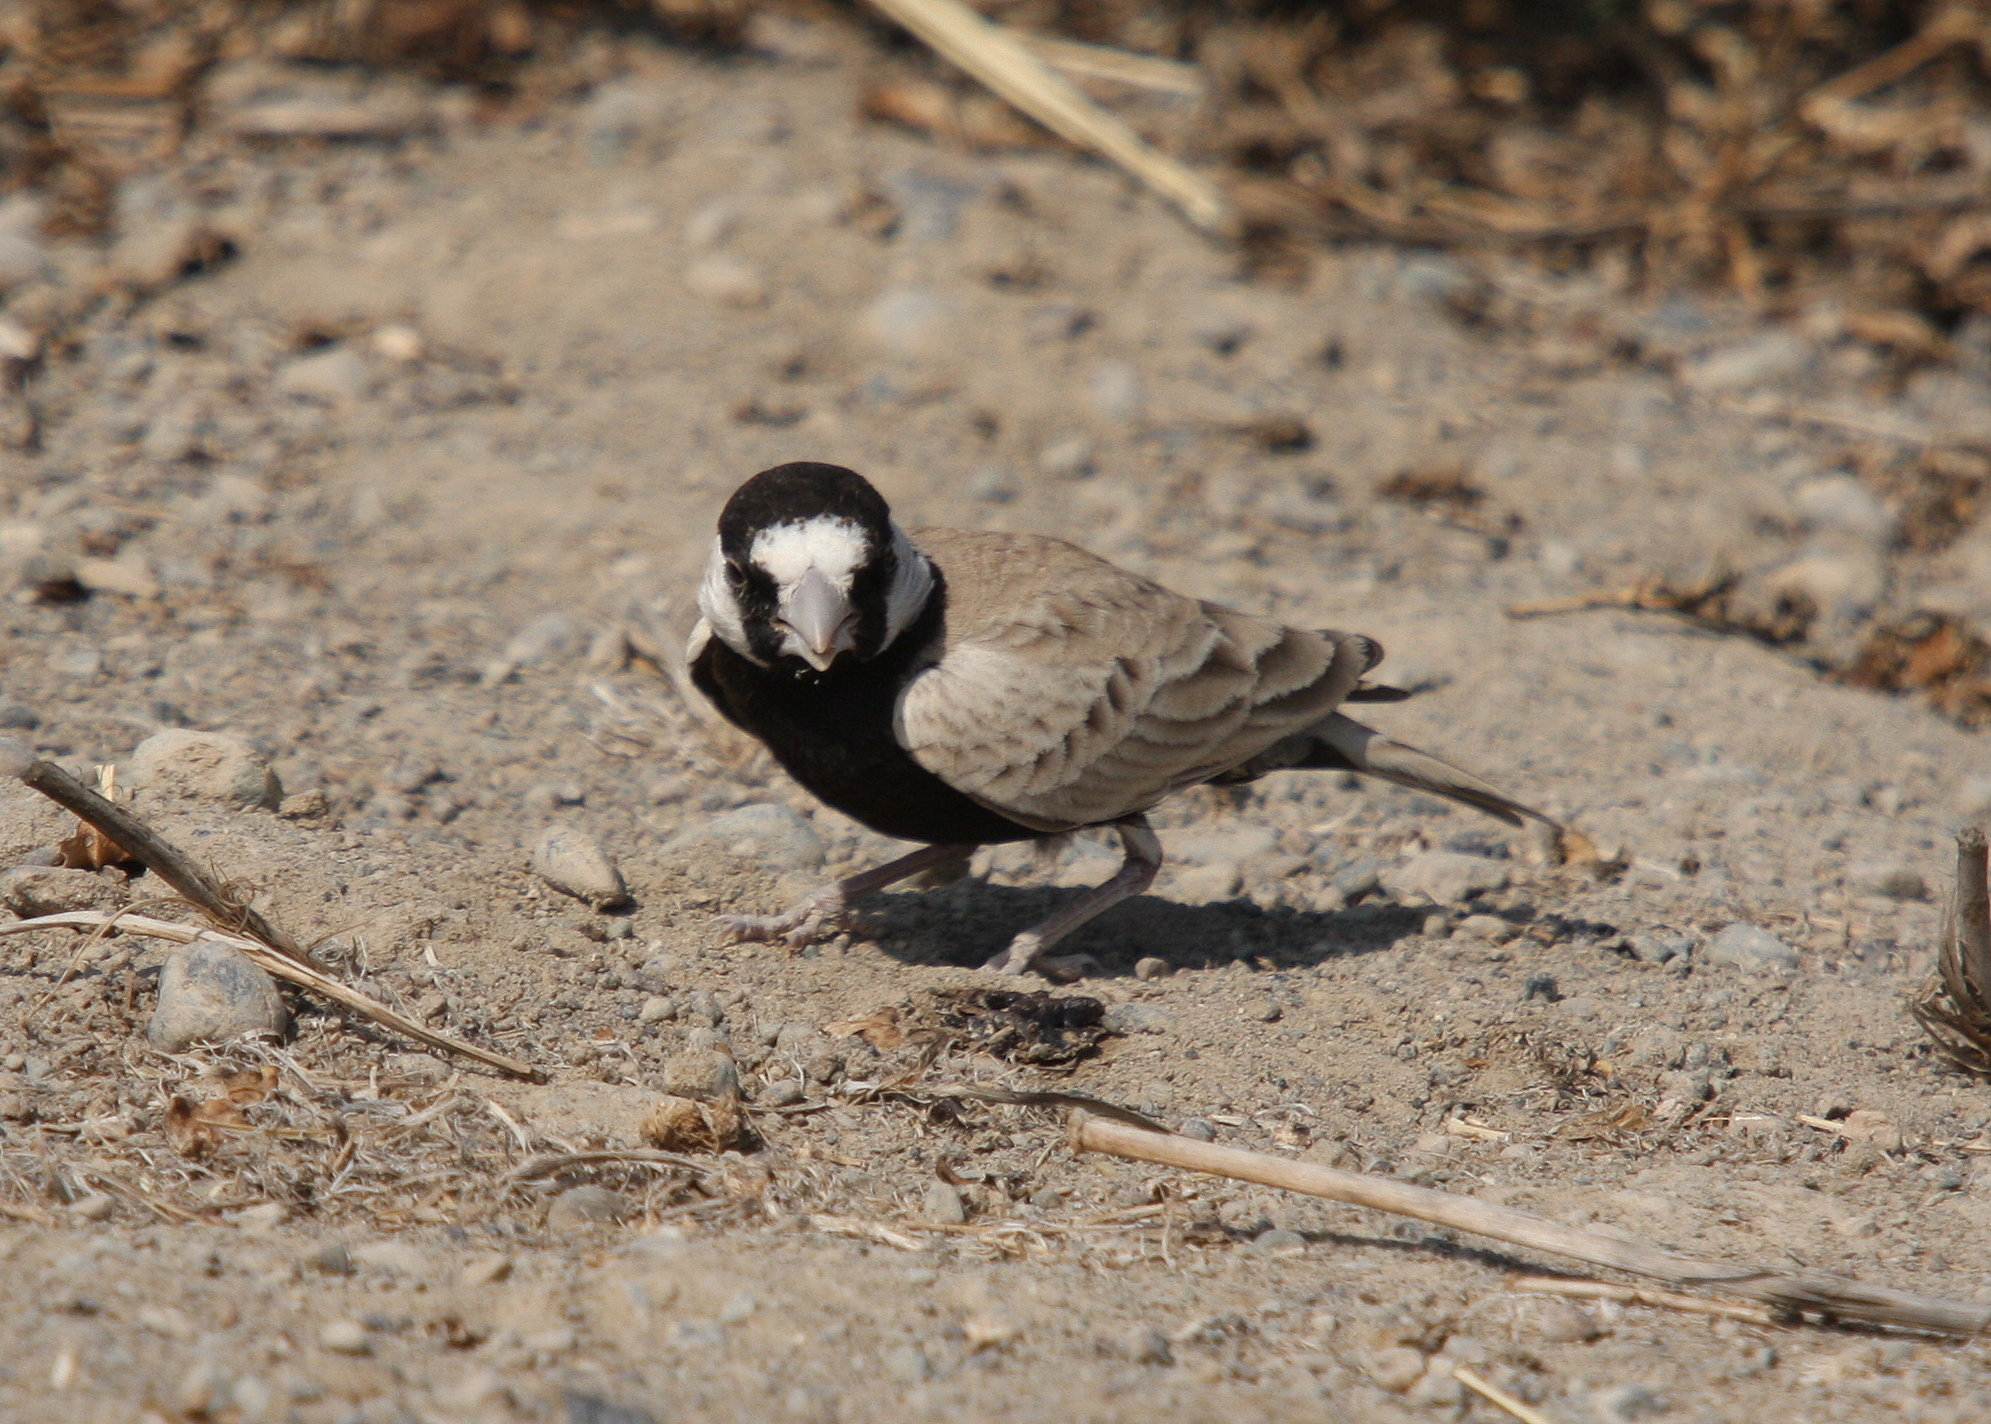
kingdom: Animalia
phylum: Chordata
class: Aves
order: Passeriformes
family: Alaudidae
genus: Eremopterix
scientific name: Eremopterix nigriceps
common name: Black-crowned sparrow-lark
